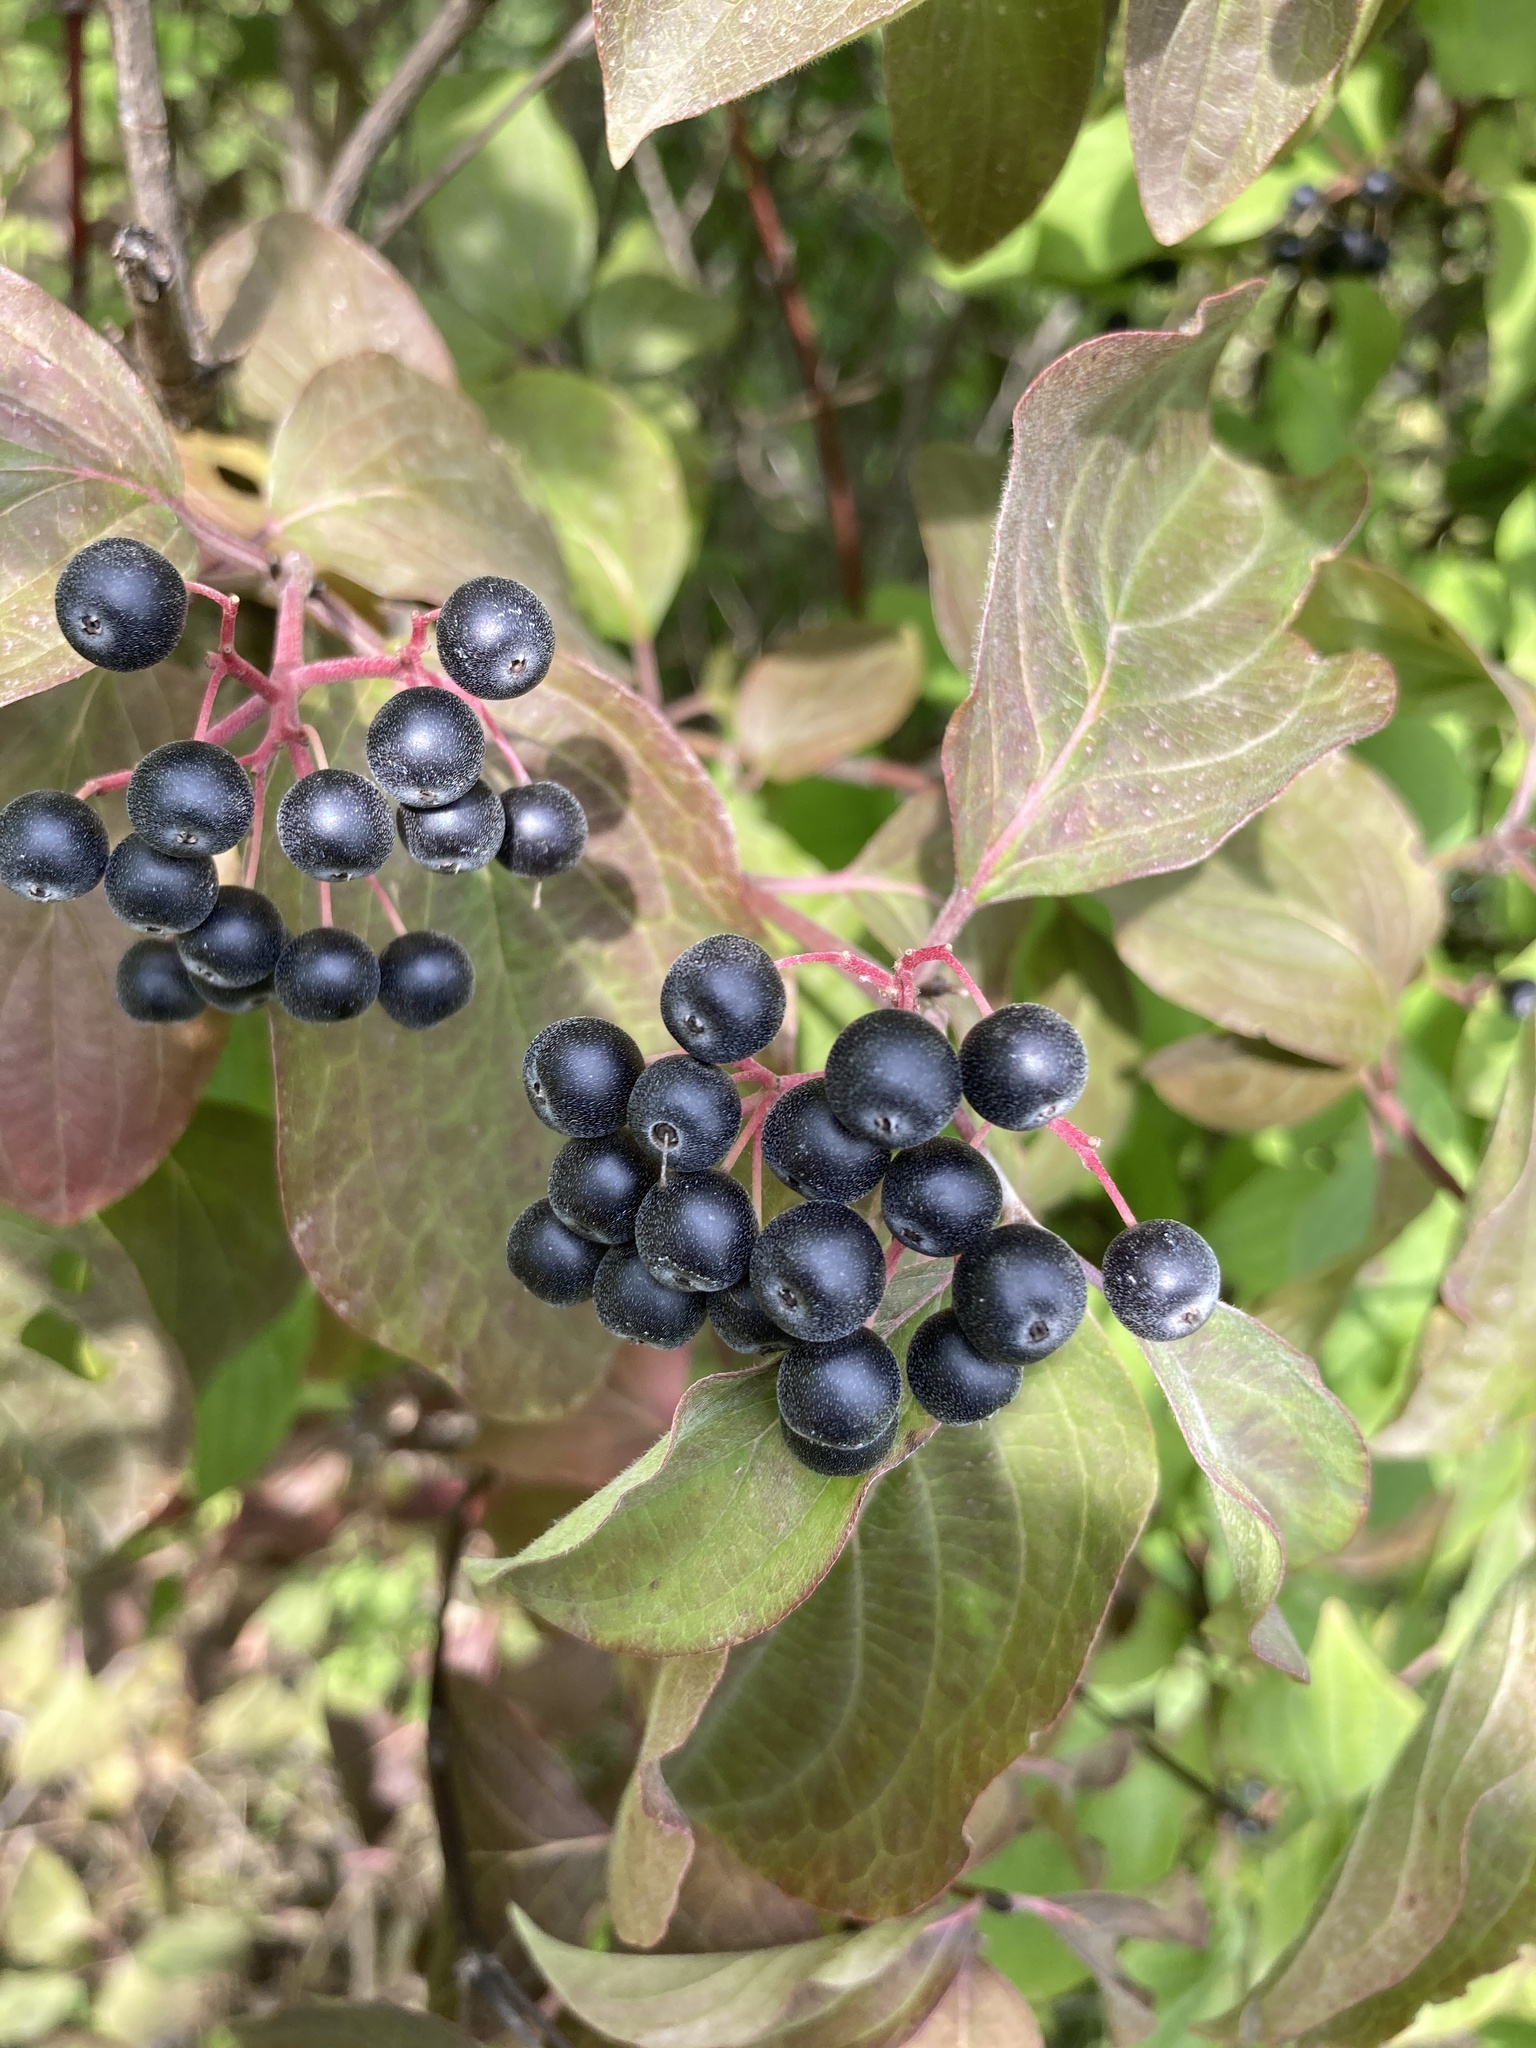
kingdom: Plantae
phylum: Tracheophyta
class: Magnoliopsida
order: Cornales
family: Cornaceae
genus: Cornus
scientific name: Cornus sanguinea
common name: Dogwood
